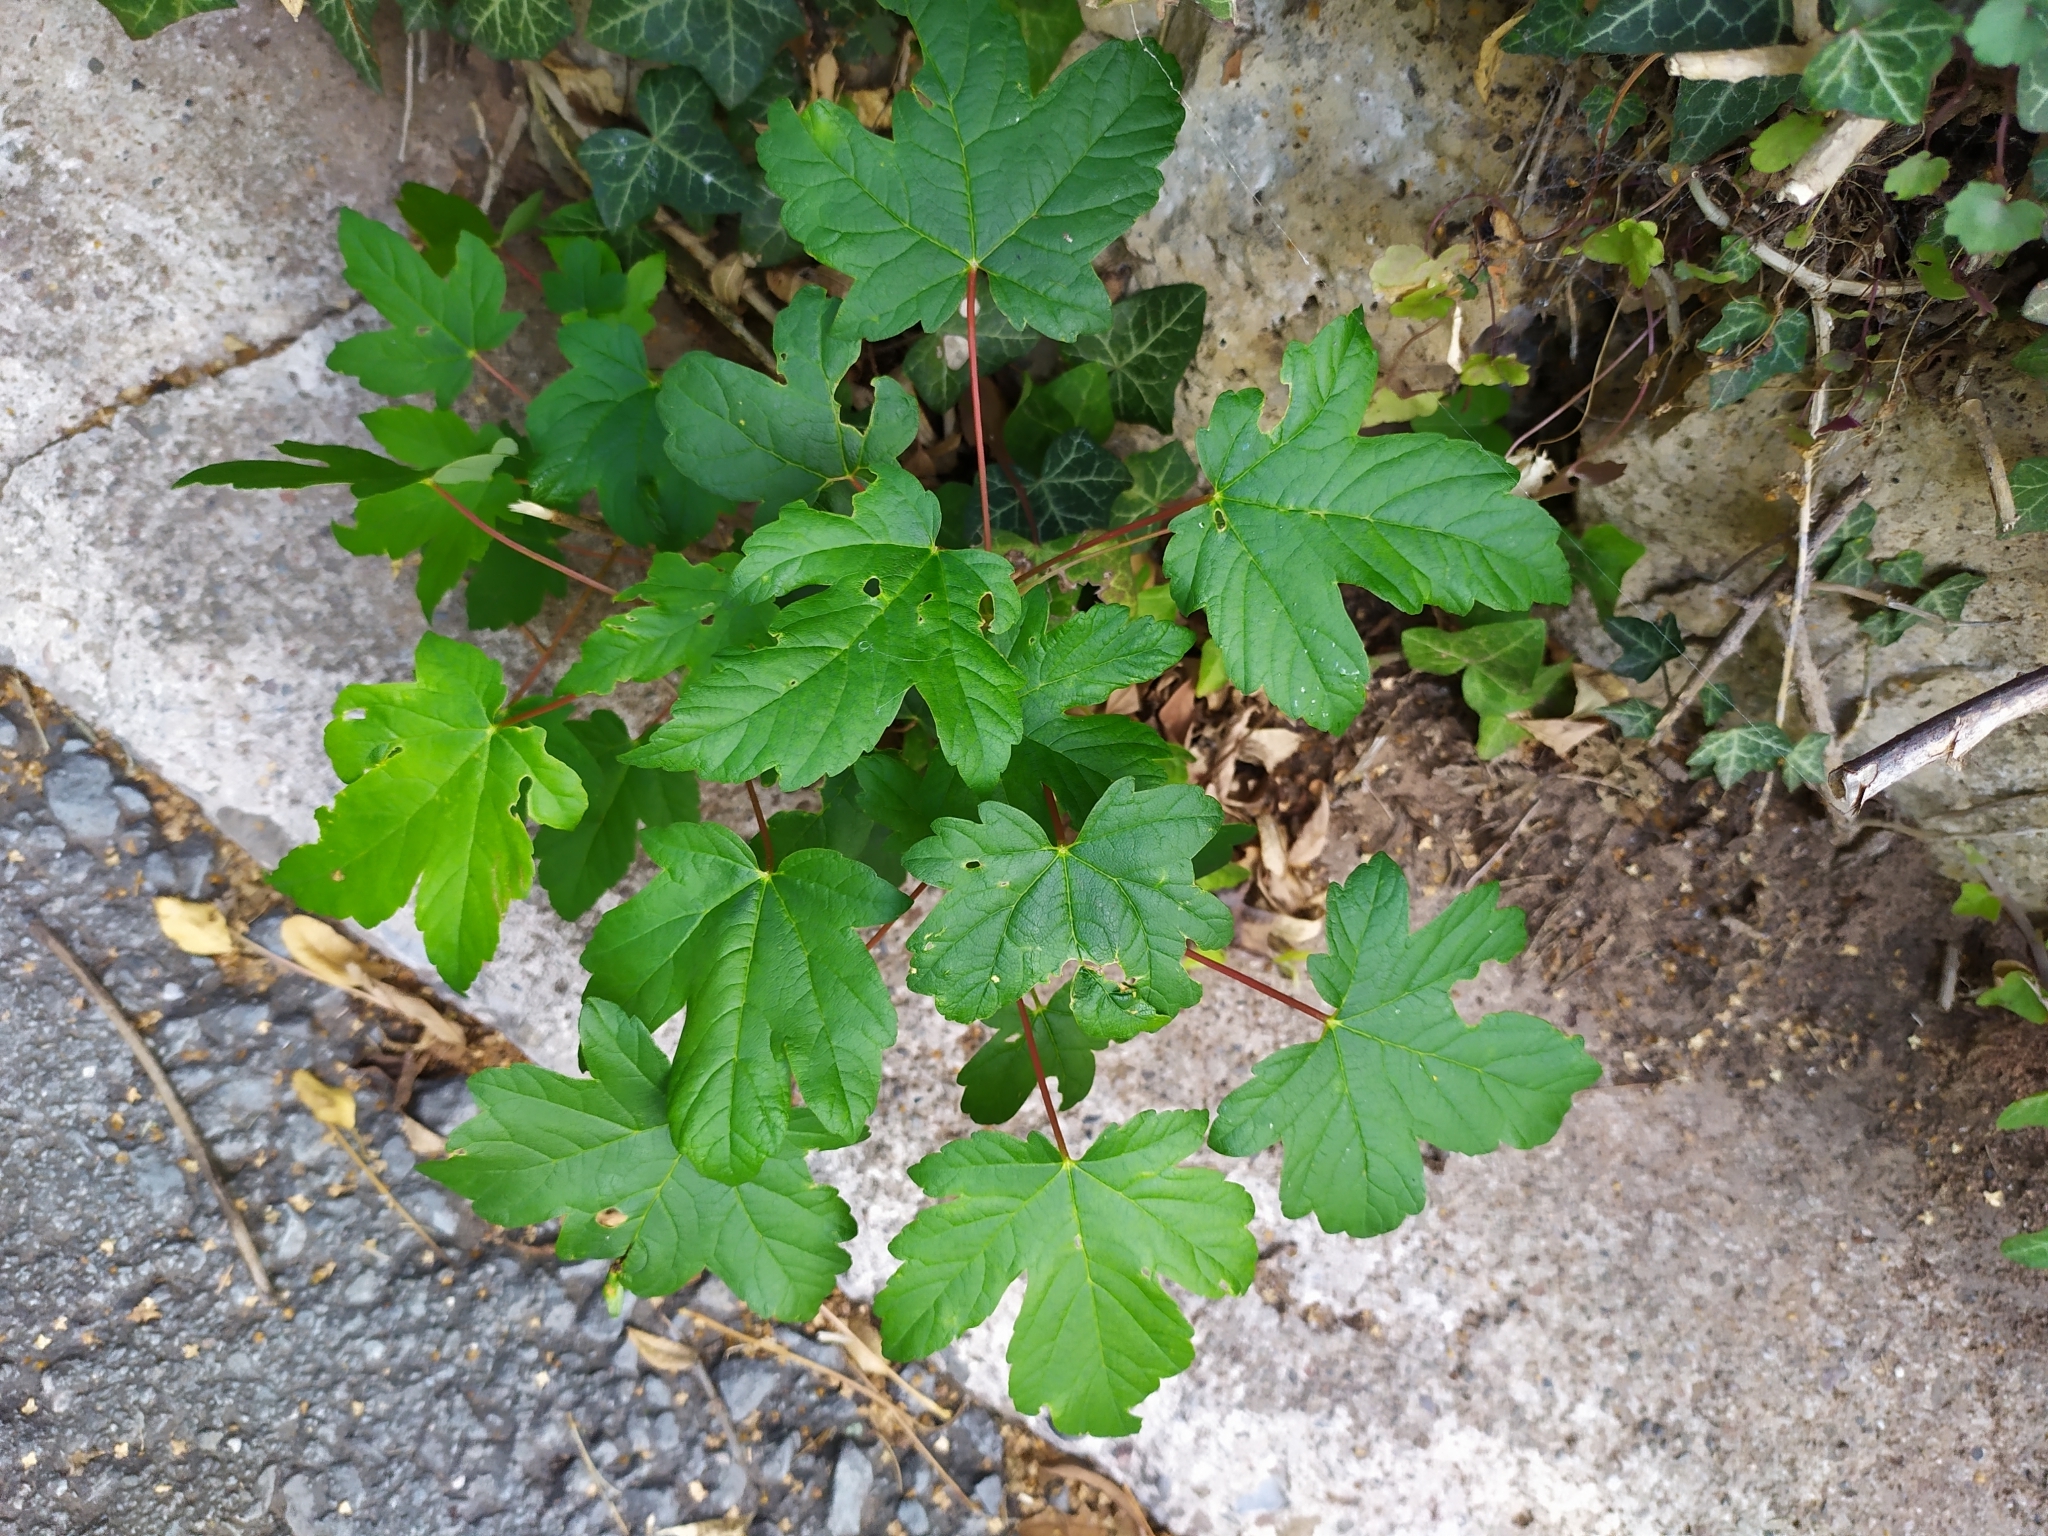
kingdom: Plantae
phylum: Tracheophyta
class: Magnoliopsida
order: Sapindales
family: Sapindaceae
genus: Acer
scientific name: Acer pseudoplatanus
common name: Sycamore
